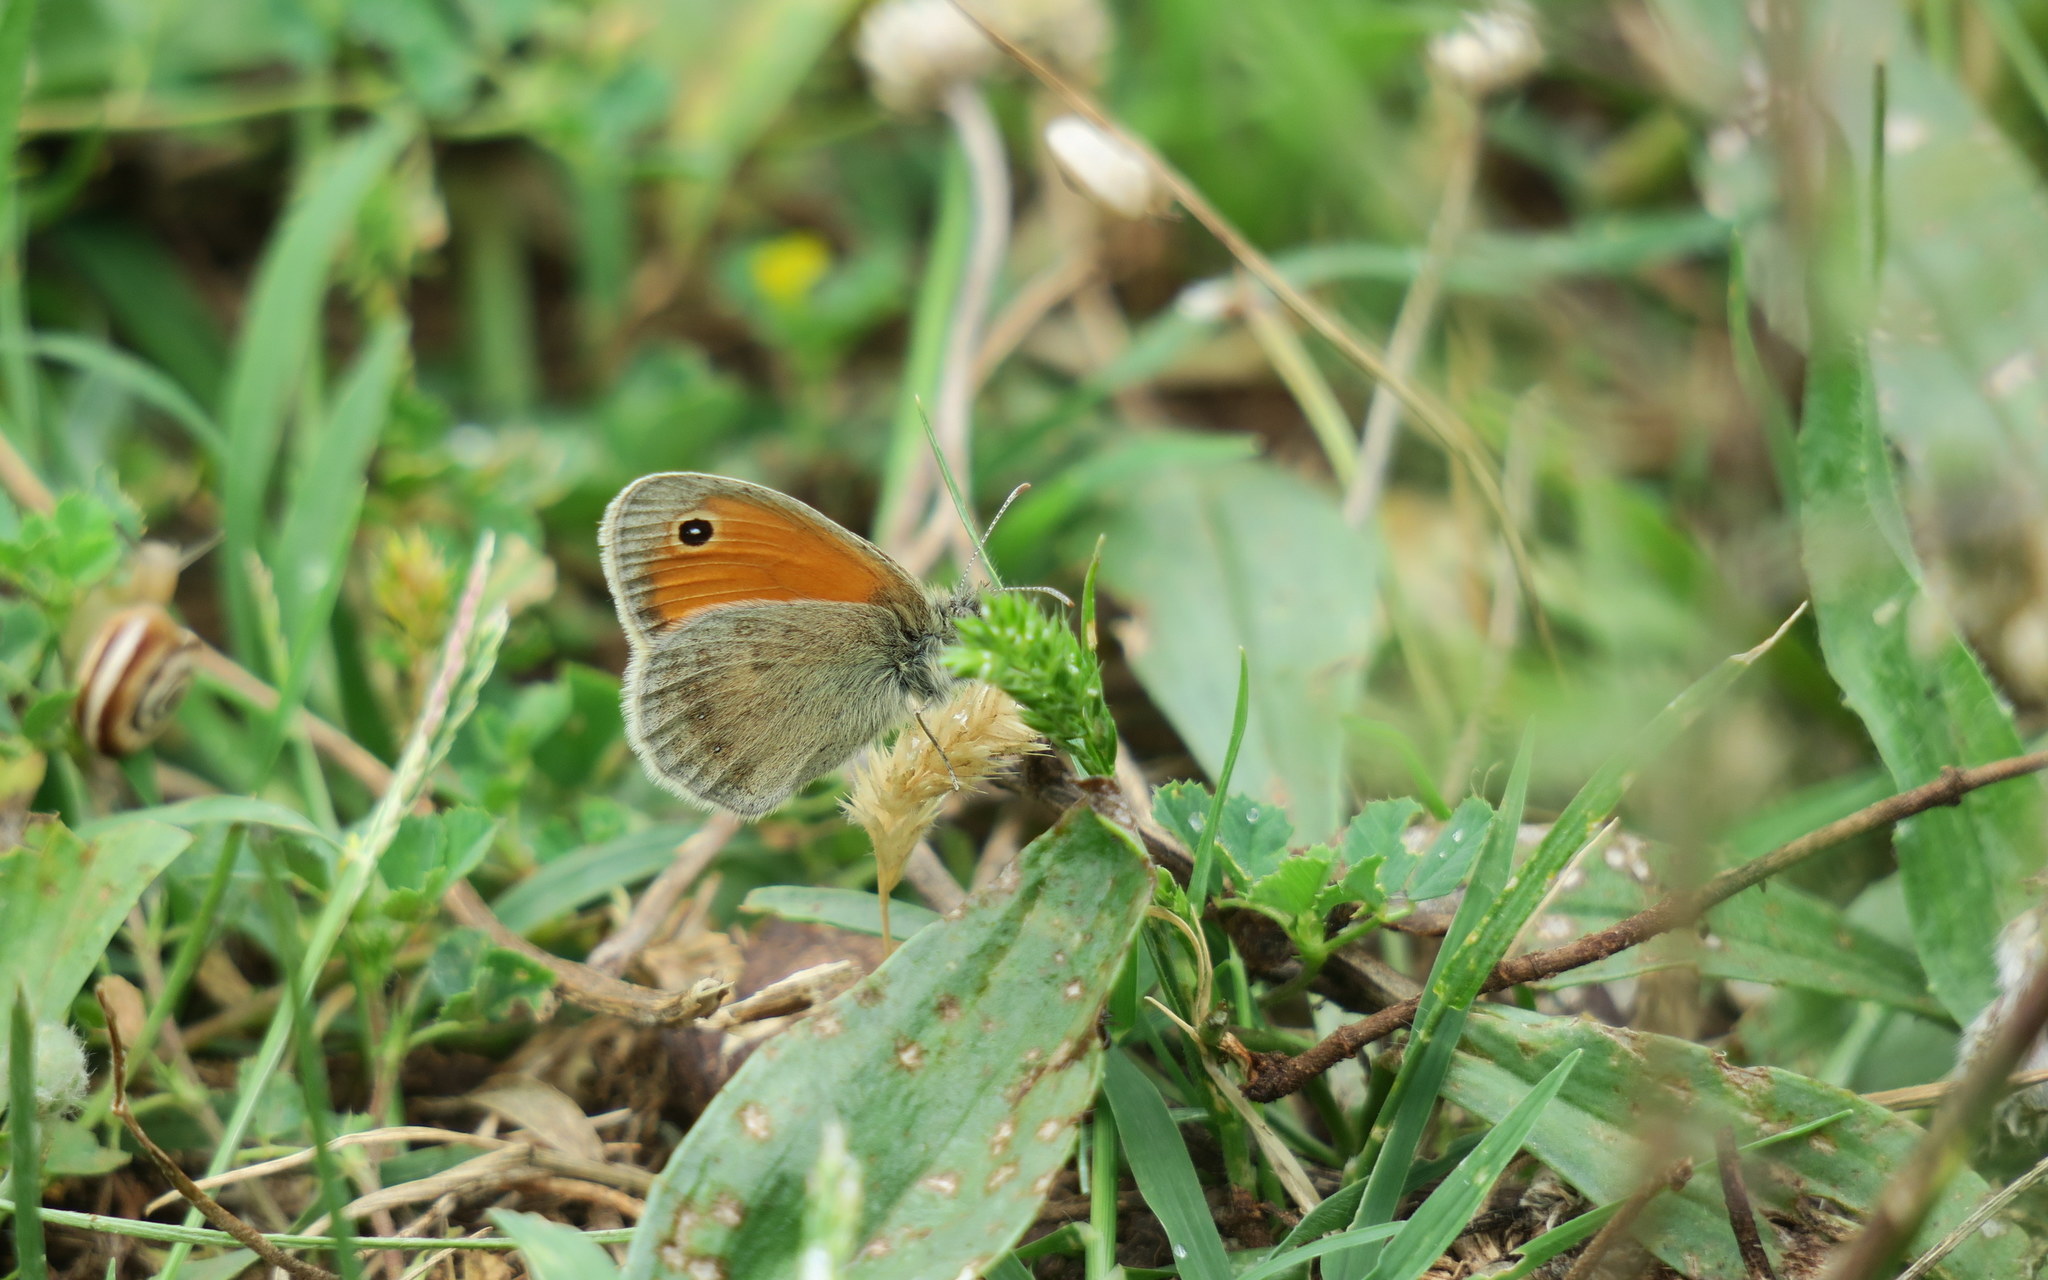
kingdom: Animalia
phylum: Arthropoda
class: Insecta
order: Lepidoptera
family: Nymphalidae
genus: Coenonympha
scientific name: Coenonympha pamphilus
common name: Small heath
